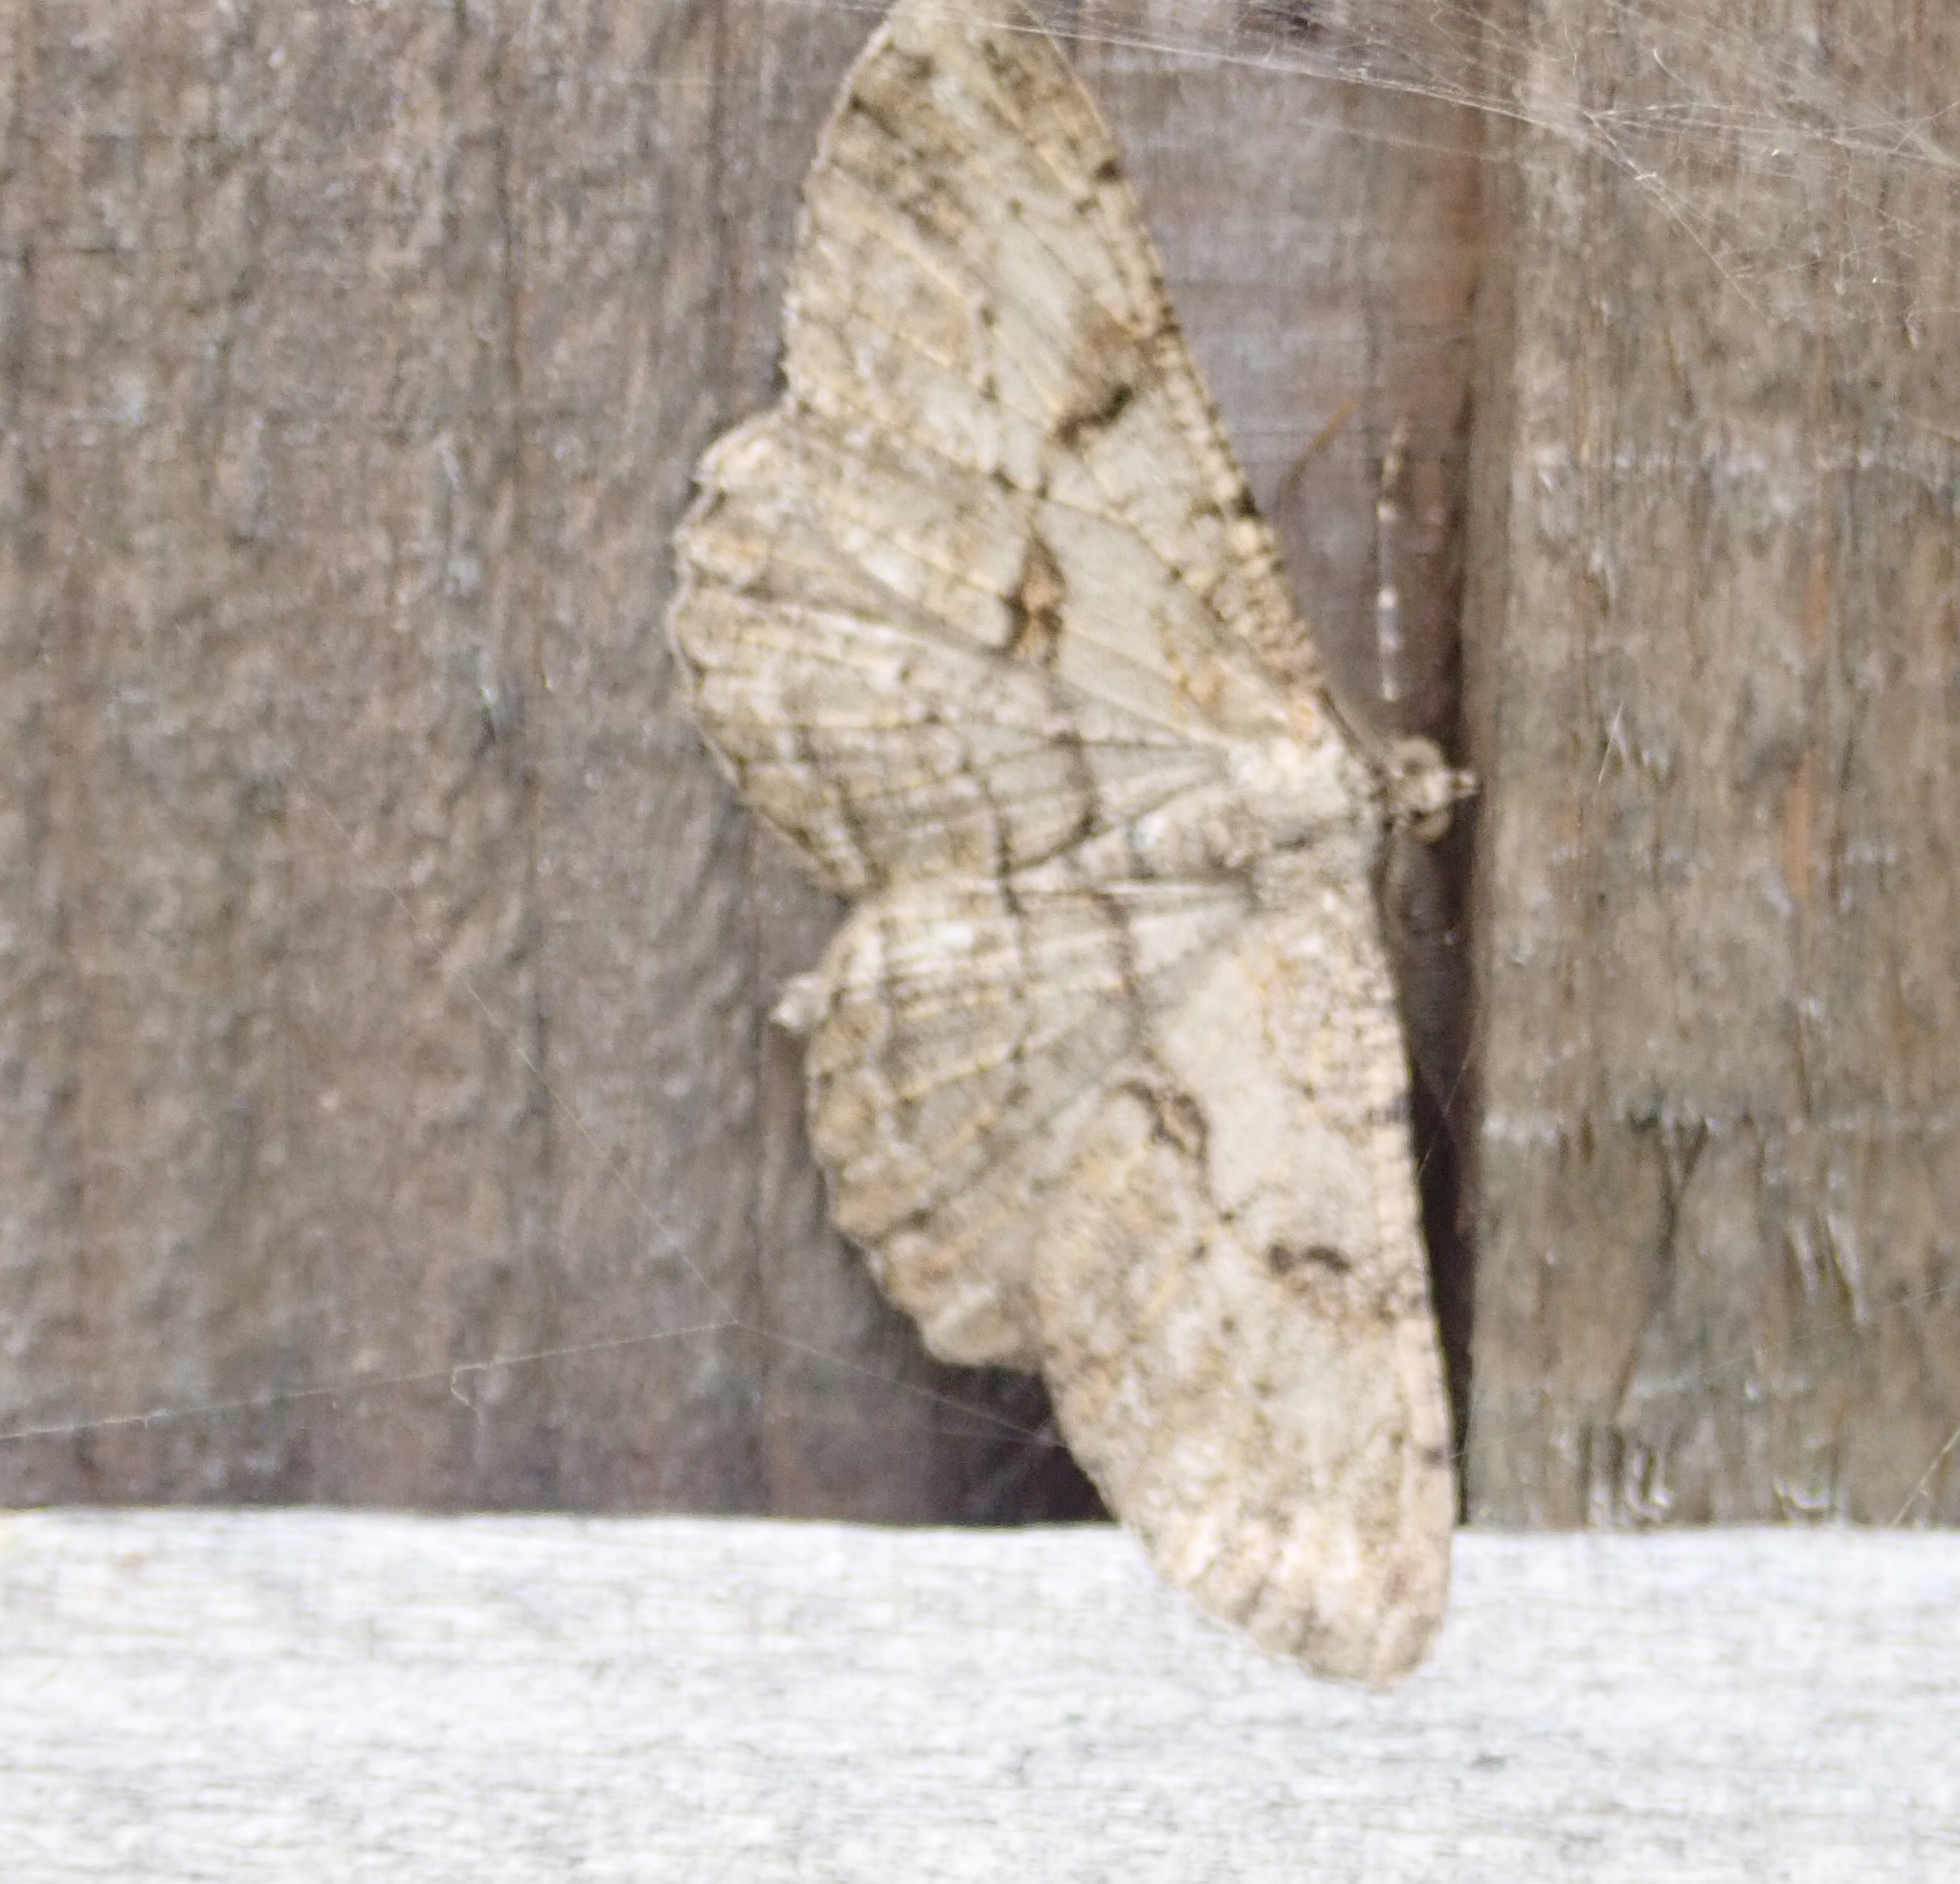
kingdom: Animalia
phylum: Arthropoda
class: Insecta
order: Lepidoptera
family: Geometridae
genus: Peribatodes
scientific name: Peribatodes rhomboidaria
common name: Willow beauty
